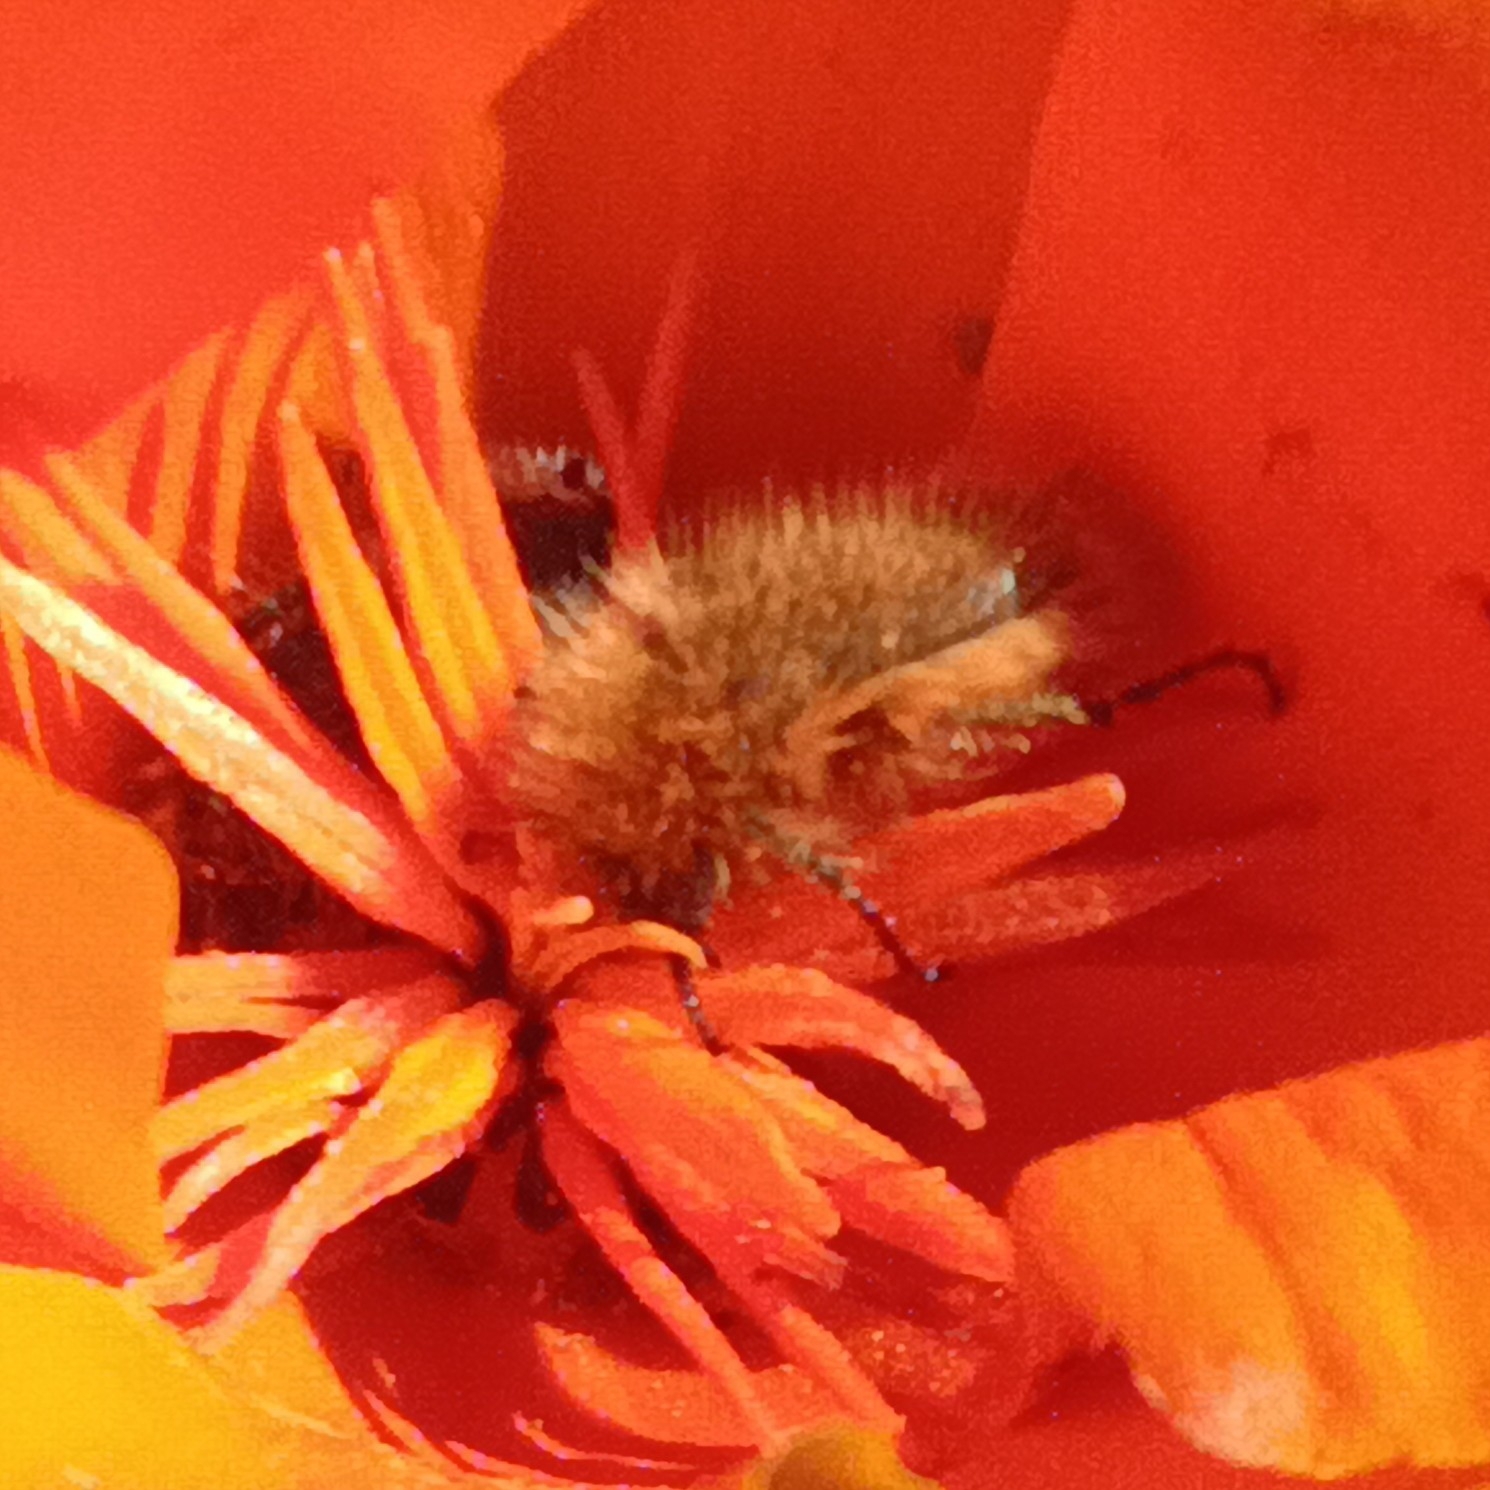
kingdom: Animalia
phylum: Arthropoda
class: Insecta
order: Coleoptera
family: Glaphyridae
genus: Pygopleurus
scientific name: Pygopleurus vulpes
